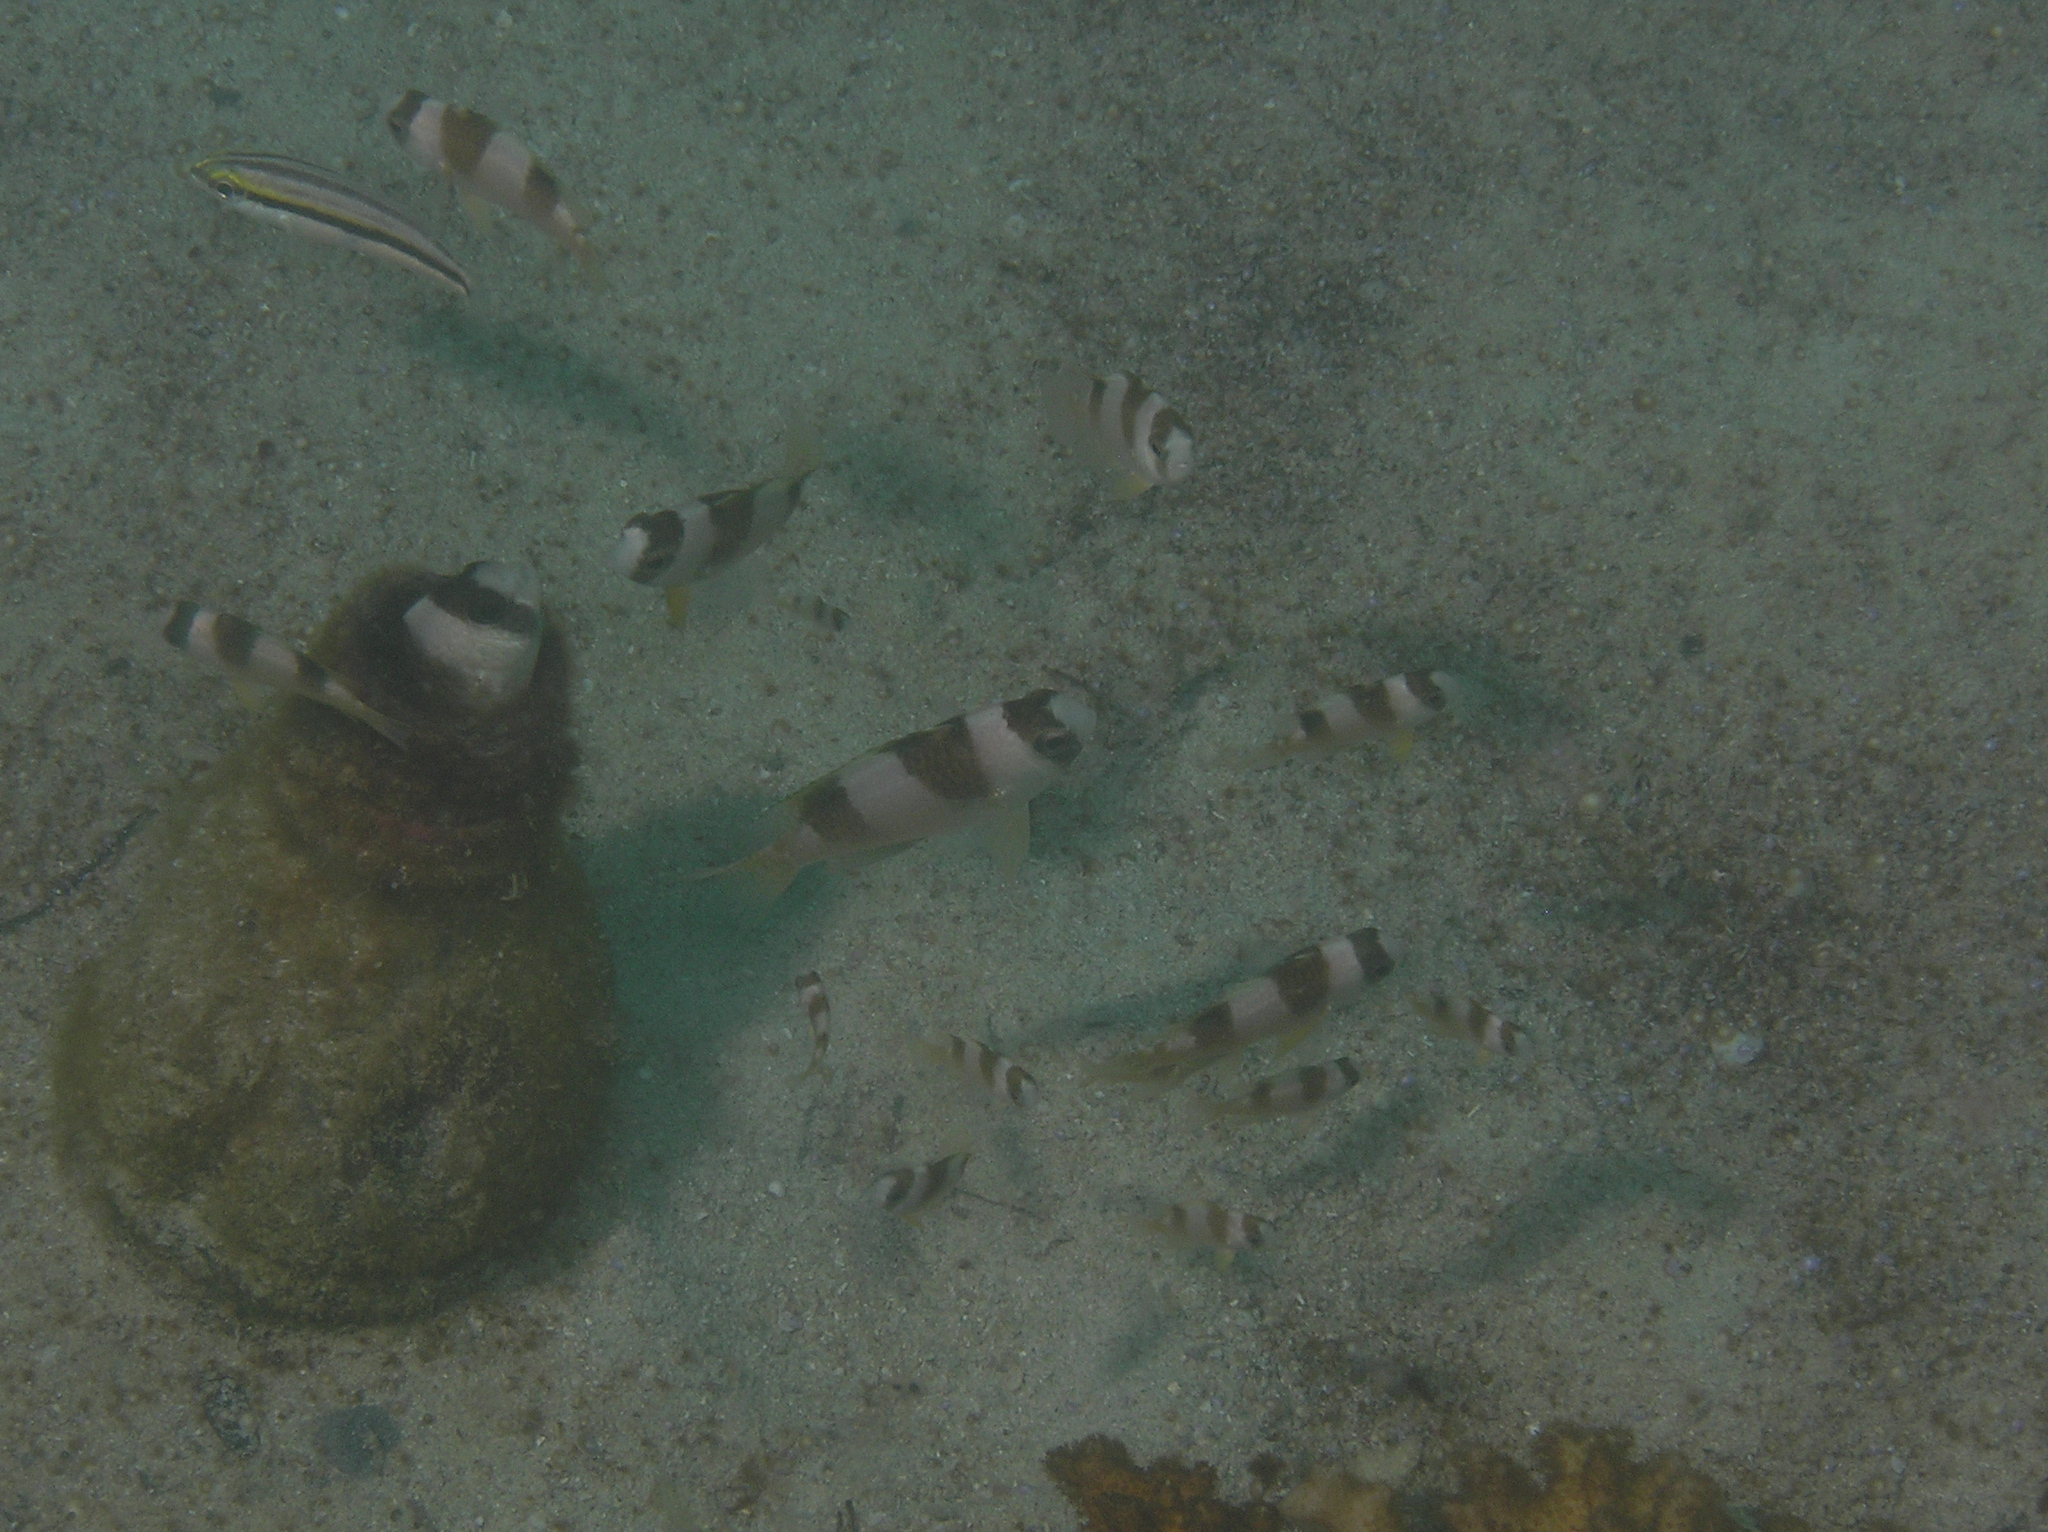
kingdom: Animalia
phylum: Chordata
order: Perciformes
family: Pomacentridae
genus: Amblypomacentrus
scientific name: Amblypomacentrus breviceps
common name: Black-banded demoiselle
